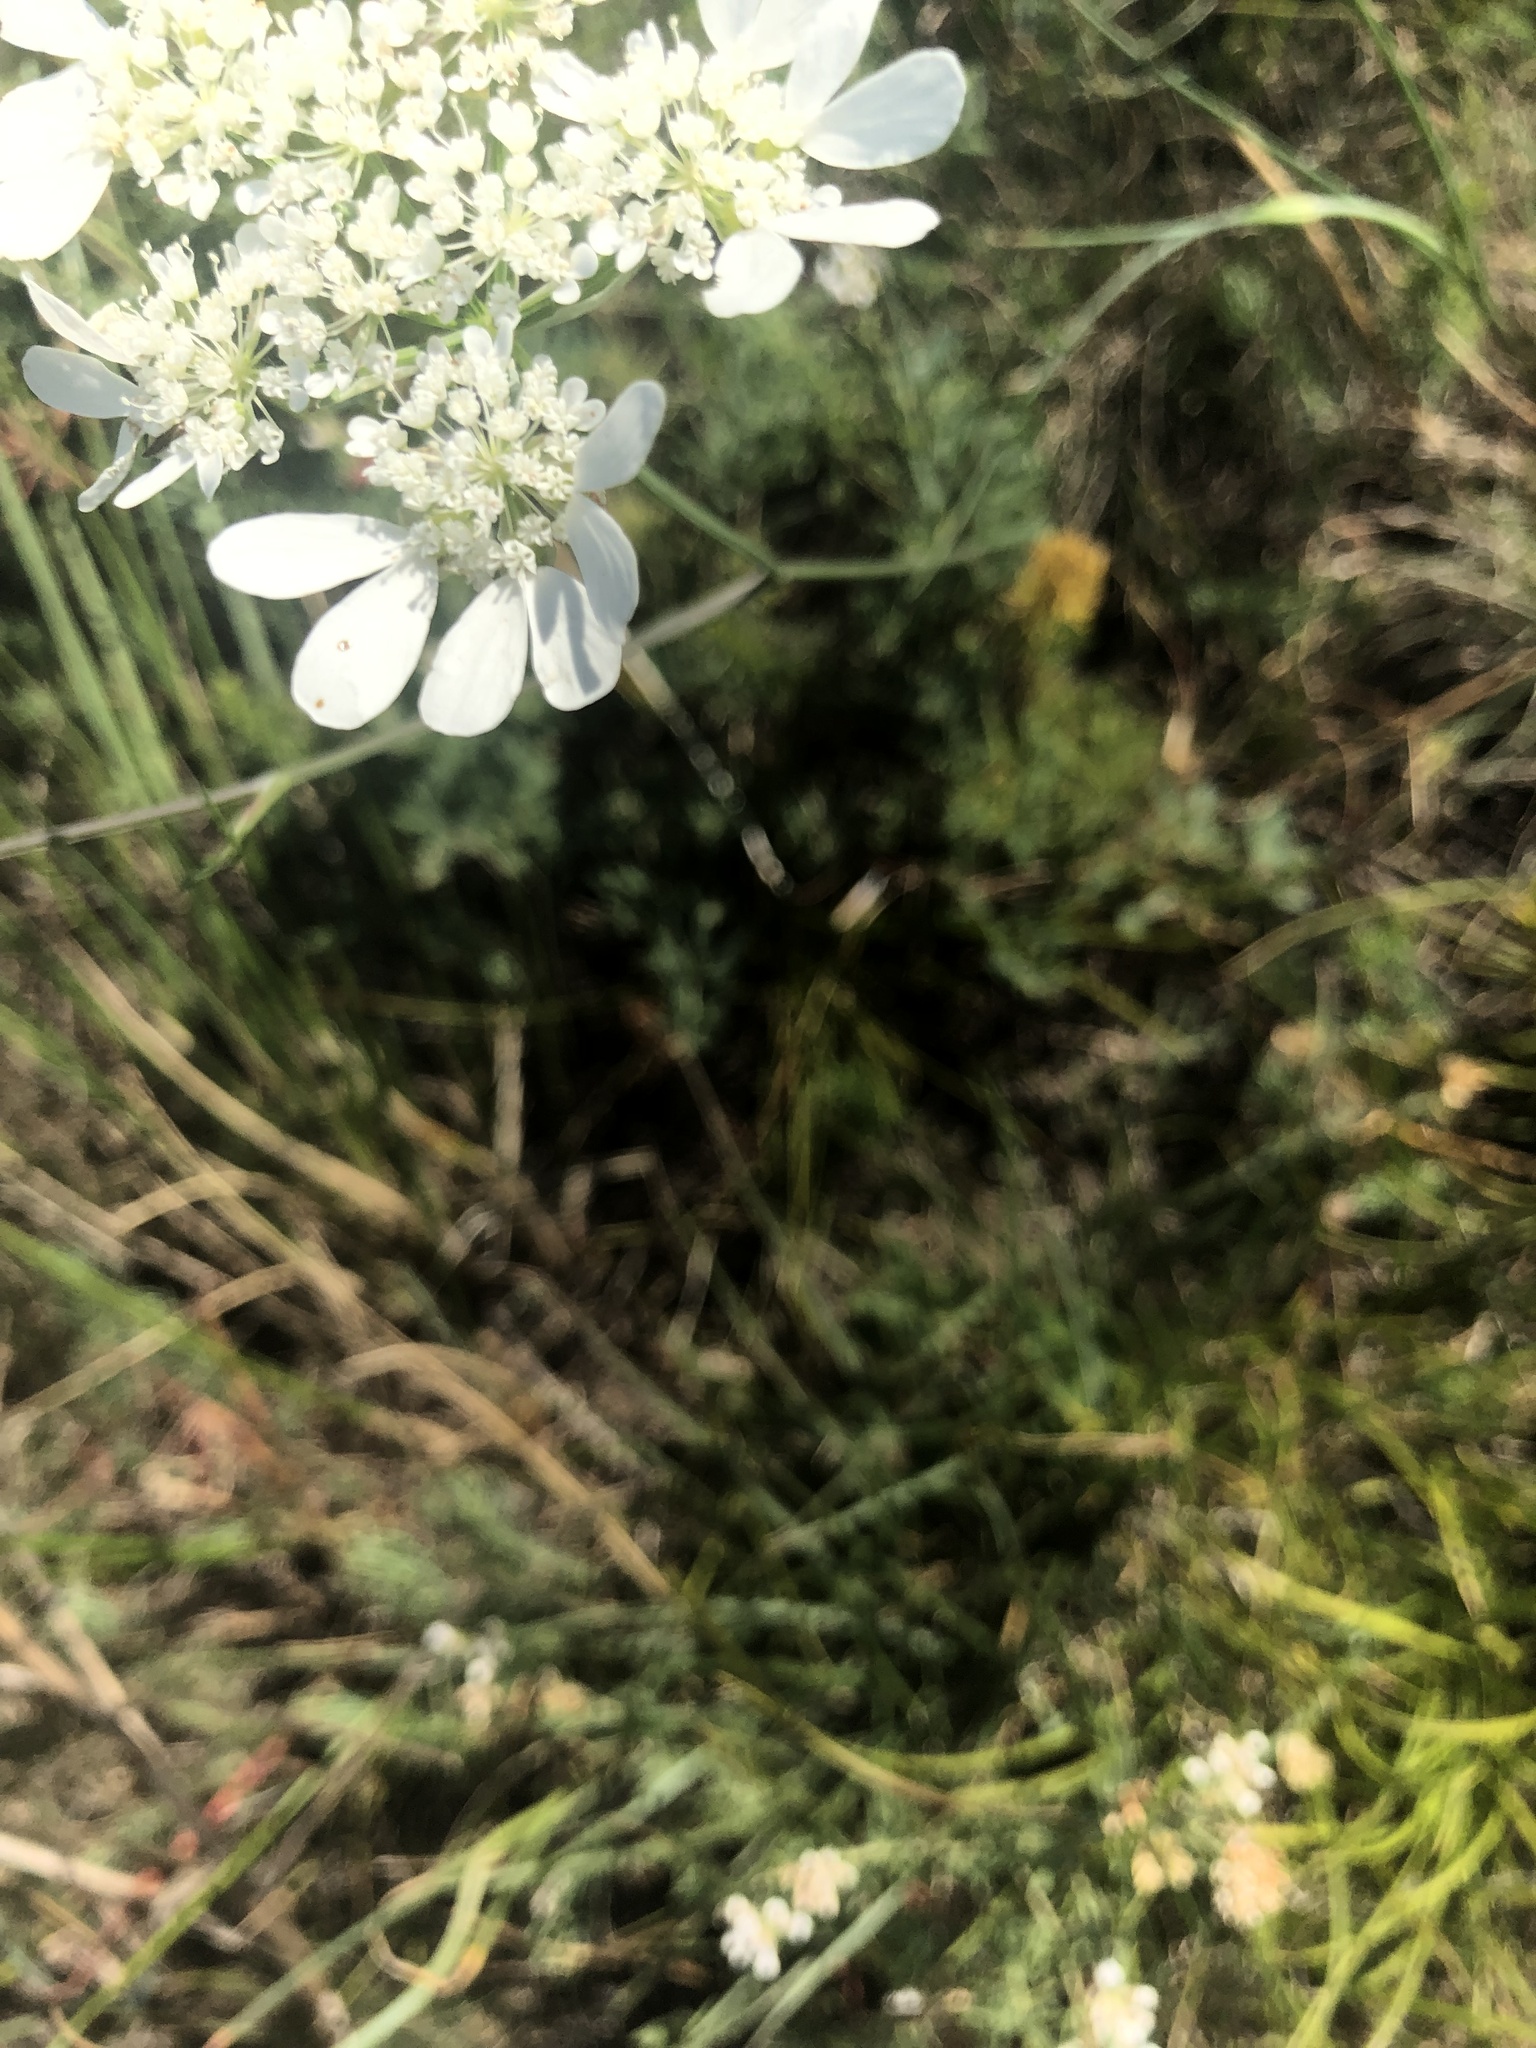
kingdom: Plantae
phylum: Tracheophyta
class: Magnoliopsida
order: Apiales
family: Apiaceae
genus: Orlaya
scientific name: Orlaya grandiflora
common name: White lace flower
